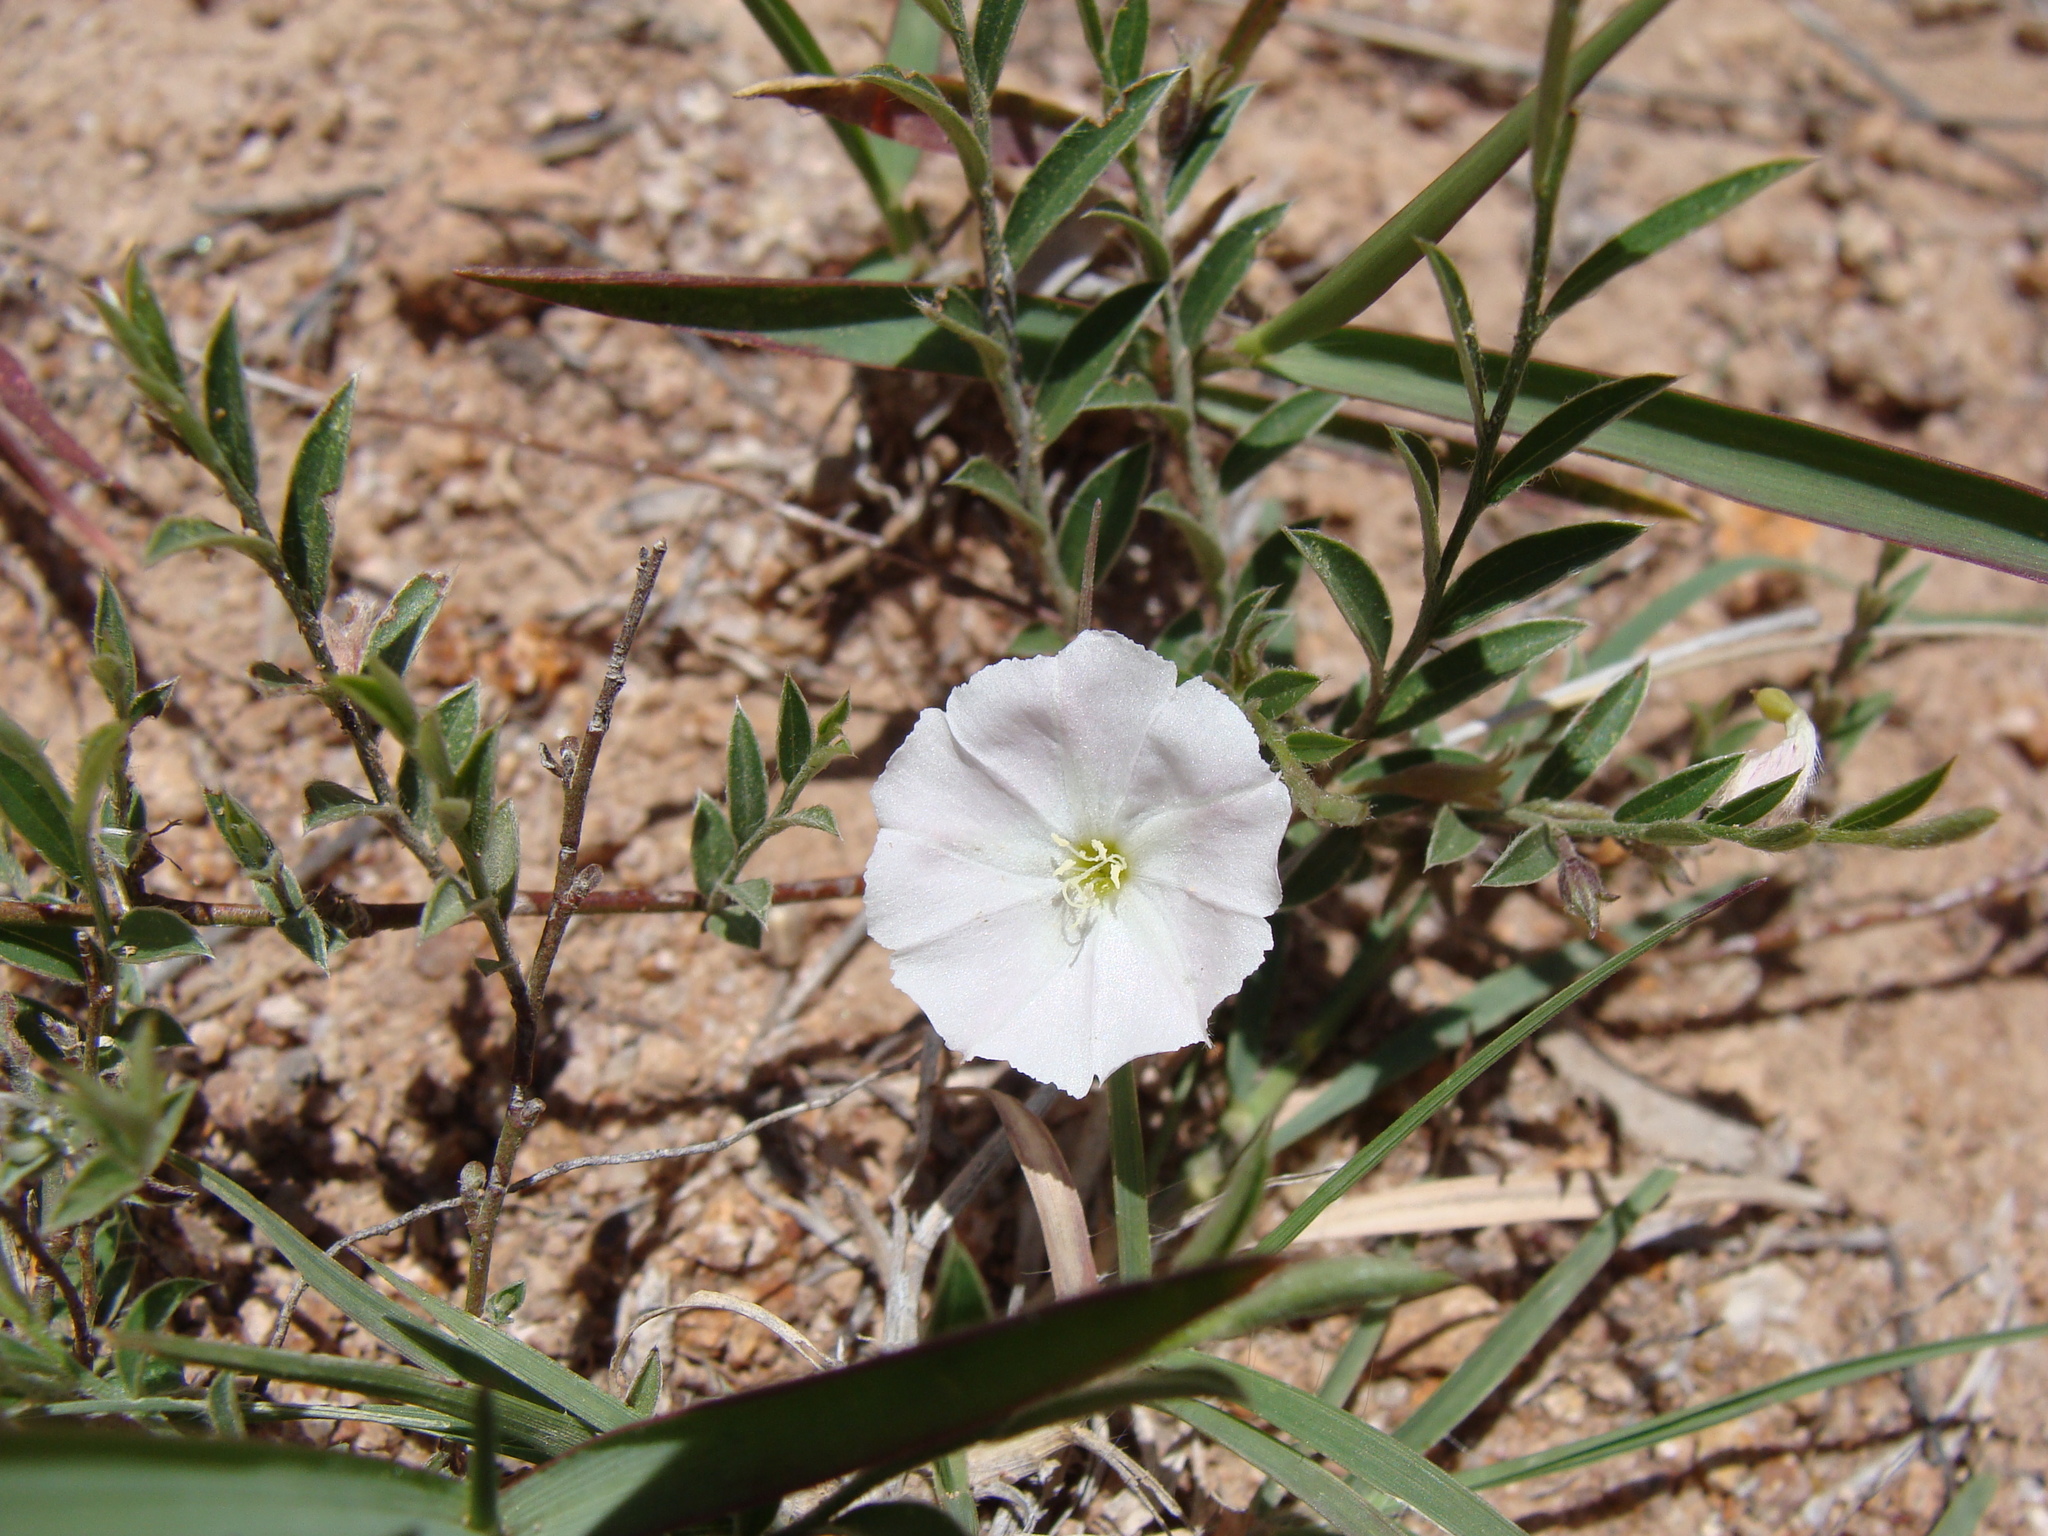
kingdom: Plantae
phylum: Tracheophyta
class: Magnoliopsida
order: Solanales
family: Convolvulaceae
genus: Evolvulus
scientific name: Evolvulus sericeus
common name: Blue dots
